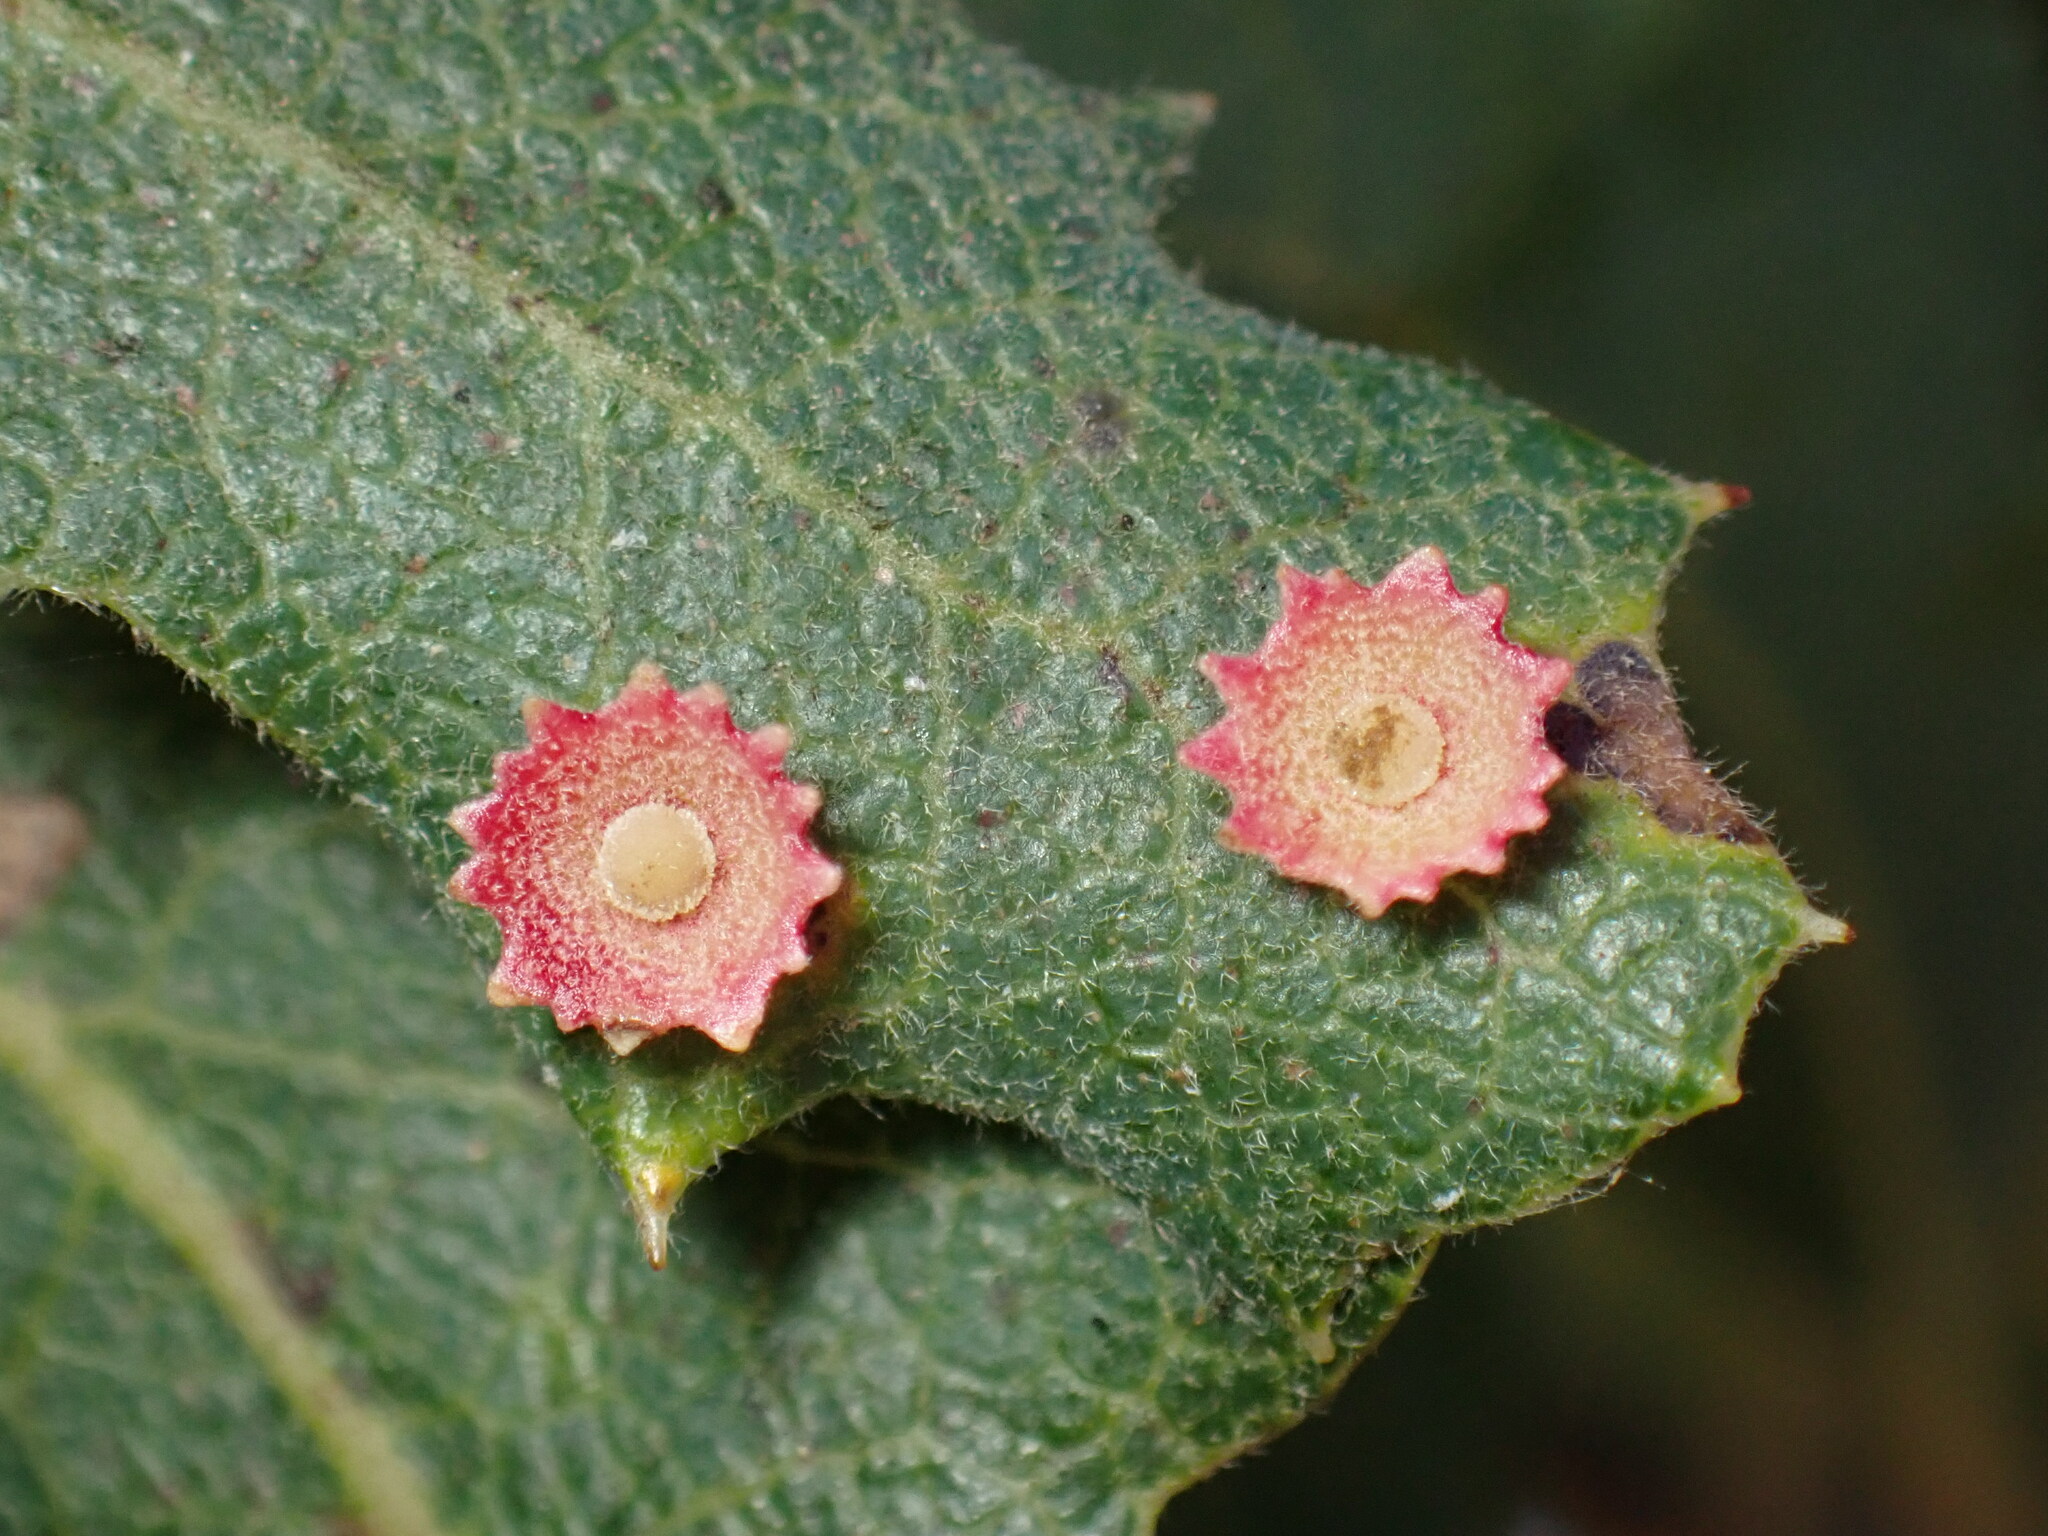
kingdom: Animalia
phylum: Arthropoda
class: Insecta
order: Hymenoptera
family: Cynipidae
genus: Andricus
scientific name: Andricus
